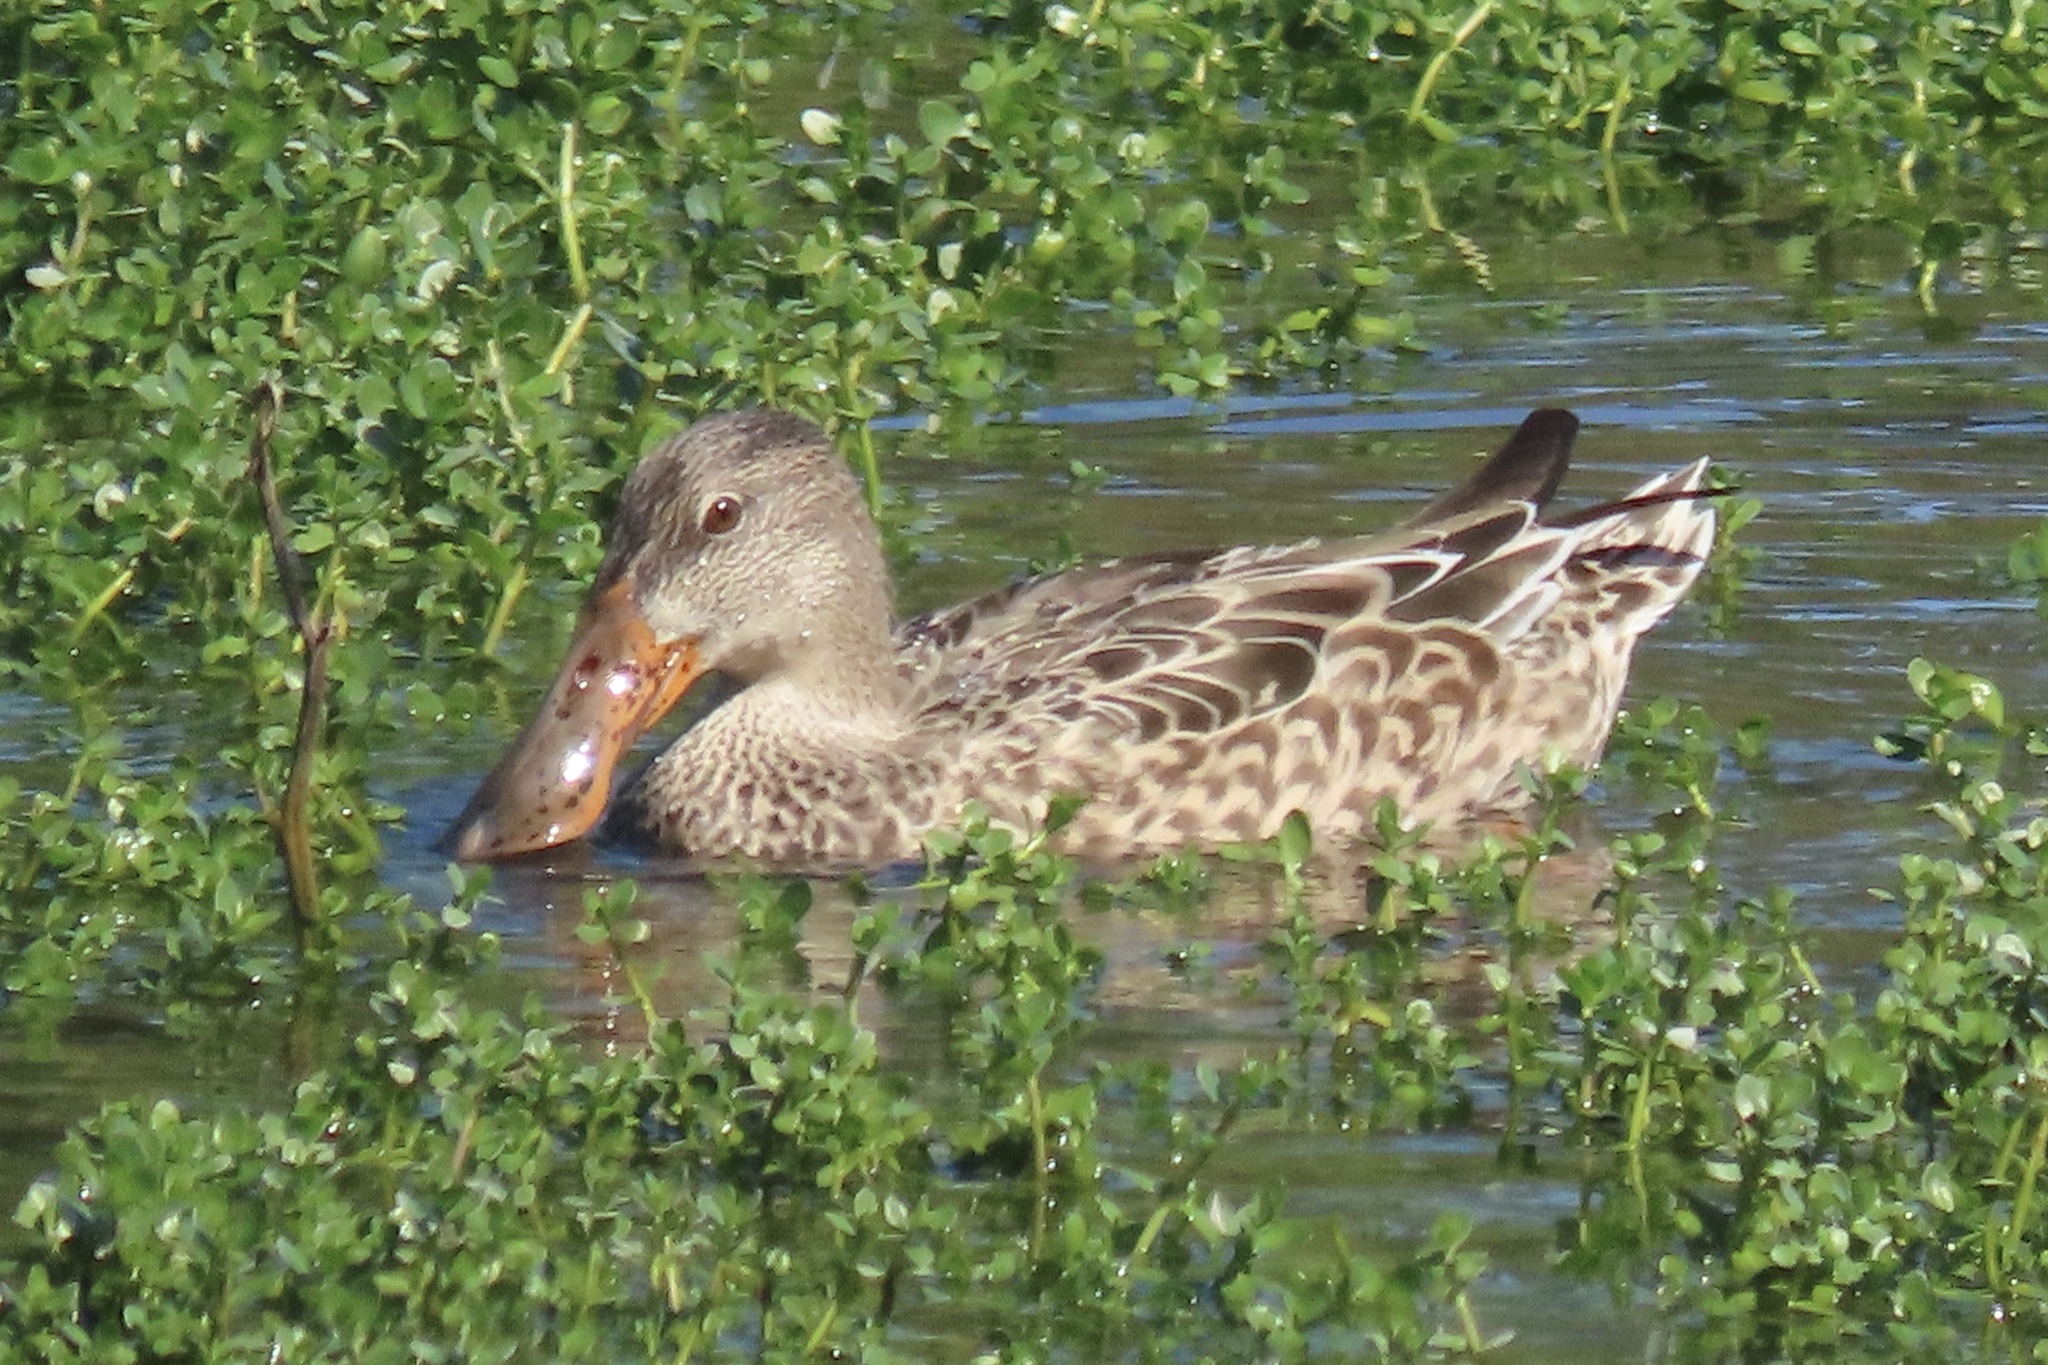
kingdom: Animalia
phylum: Chordata
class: Aves
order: Anseriformes
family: Anatidae
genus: Spatula
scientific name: Spatula clypeata
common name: Northern shoveler
